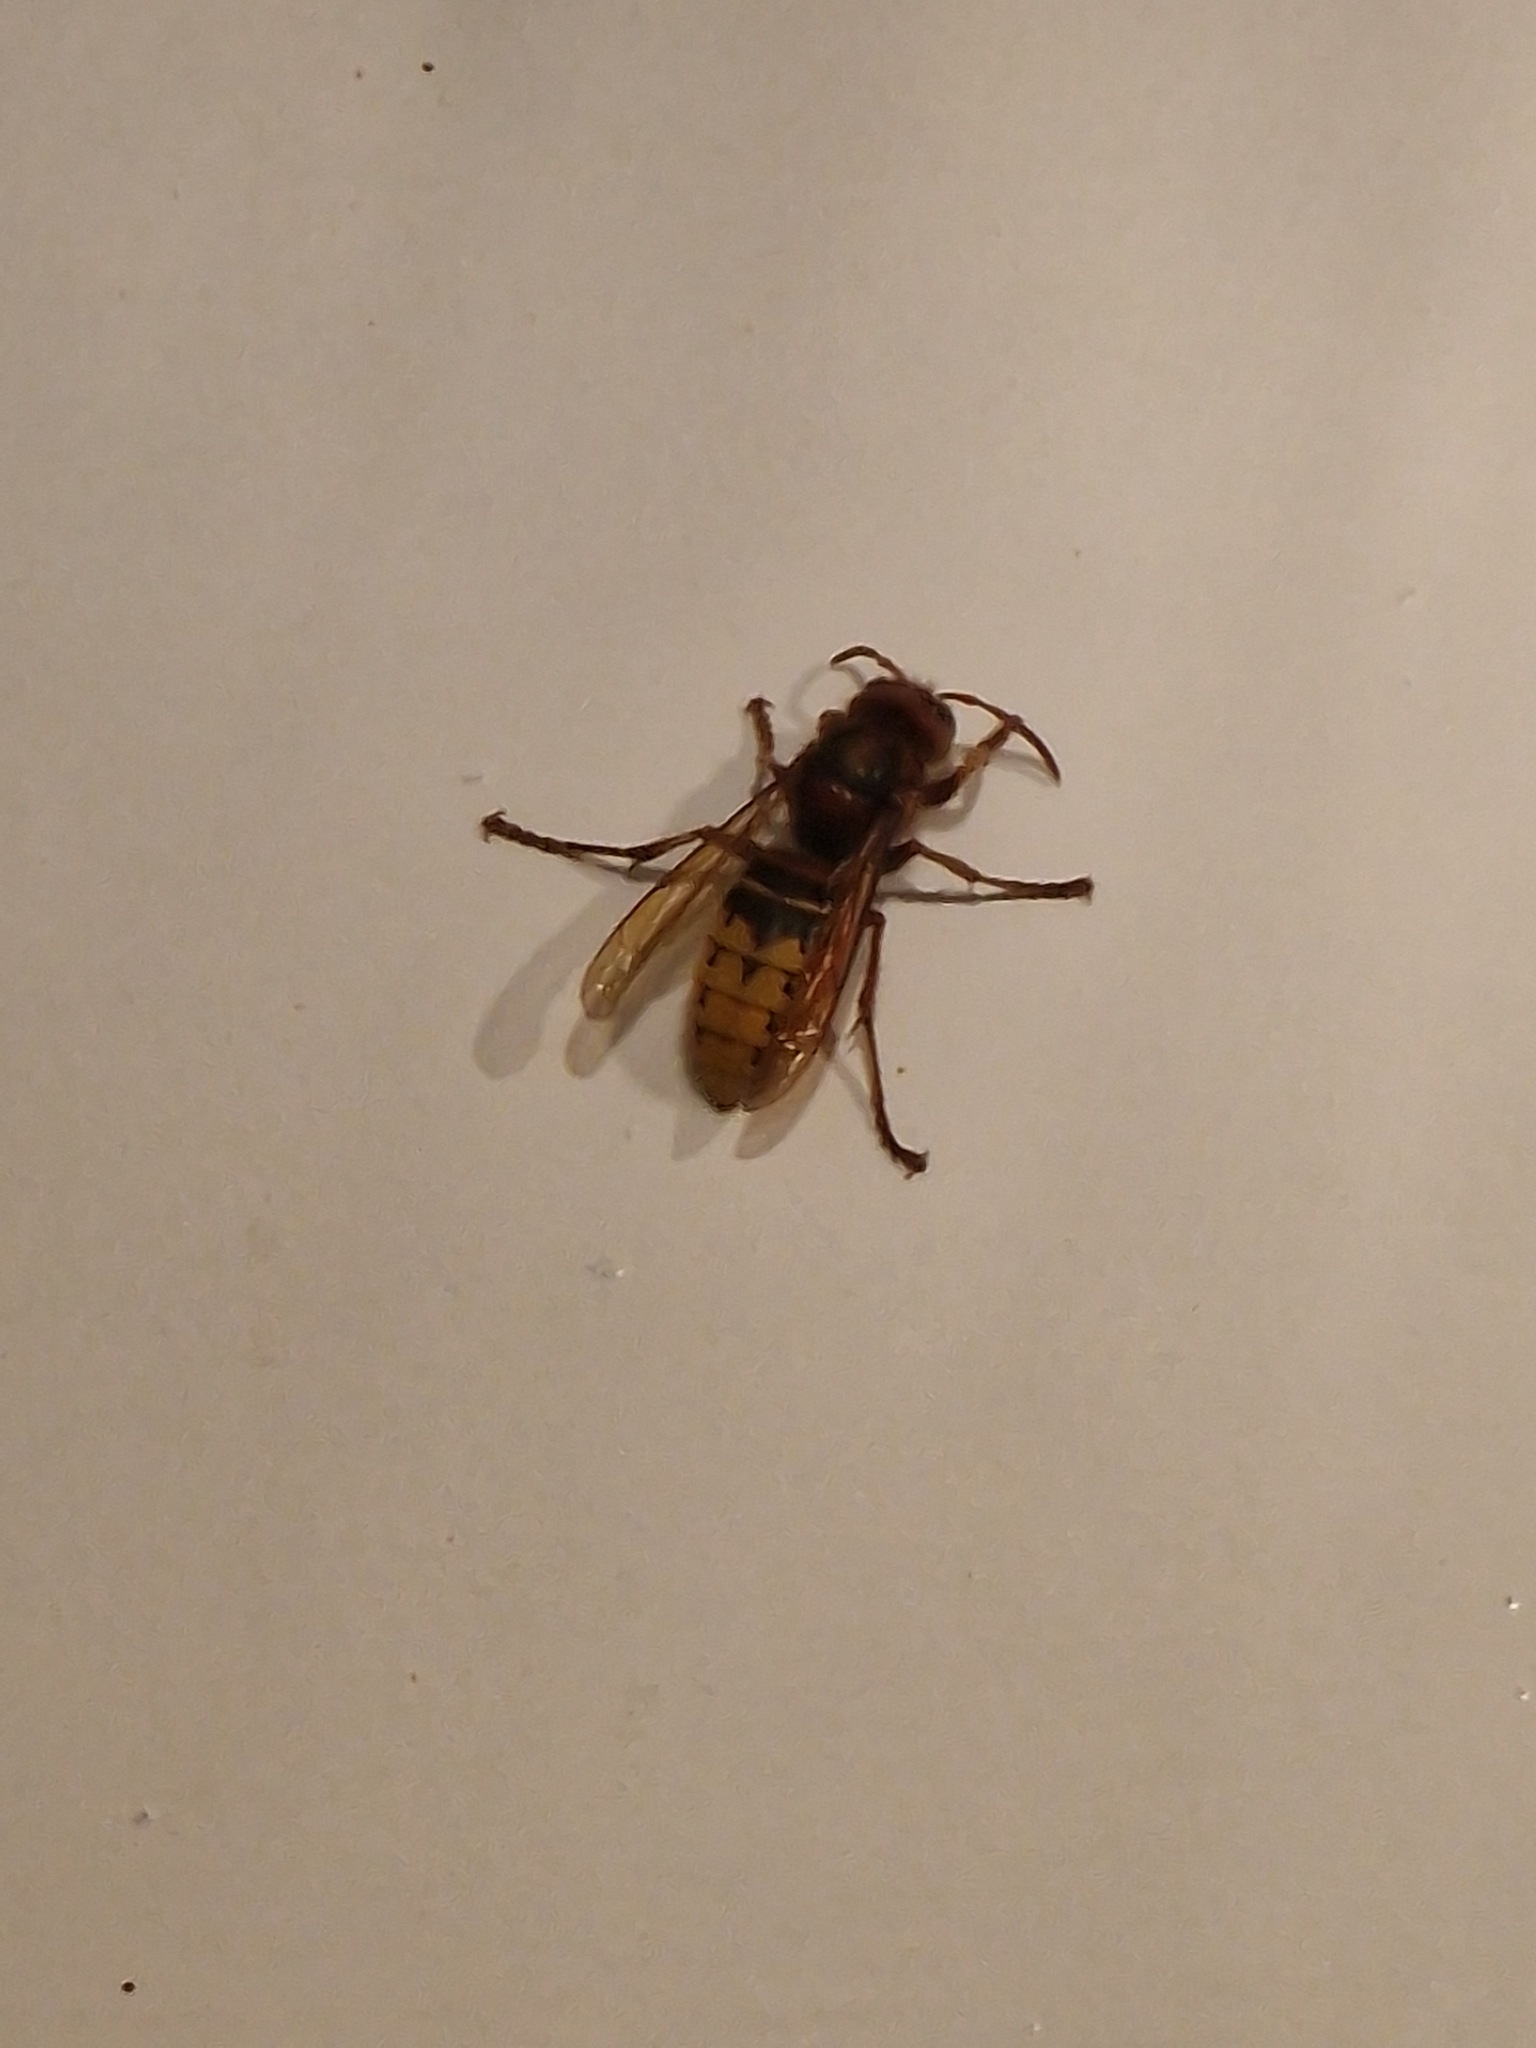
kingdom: Animalia
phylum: Arthropoda
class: Insecta
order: Hymenoptera
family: Vespidae
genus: Vespa
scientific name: Vespa crabro
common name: Hornet
